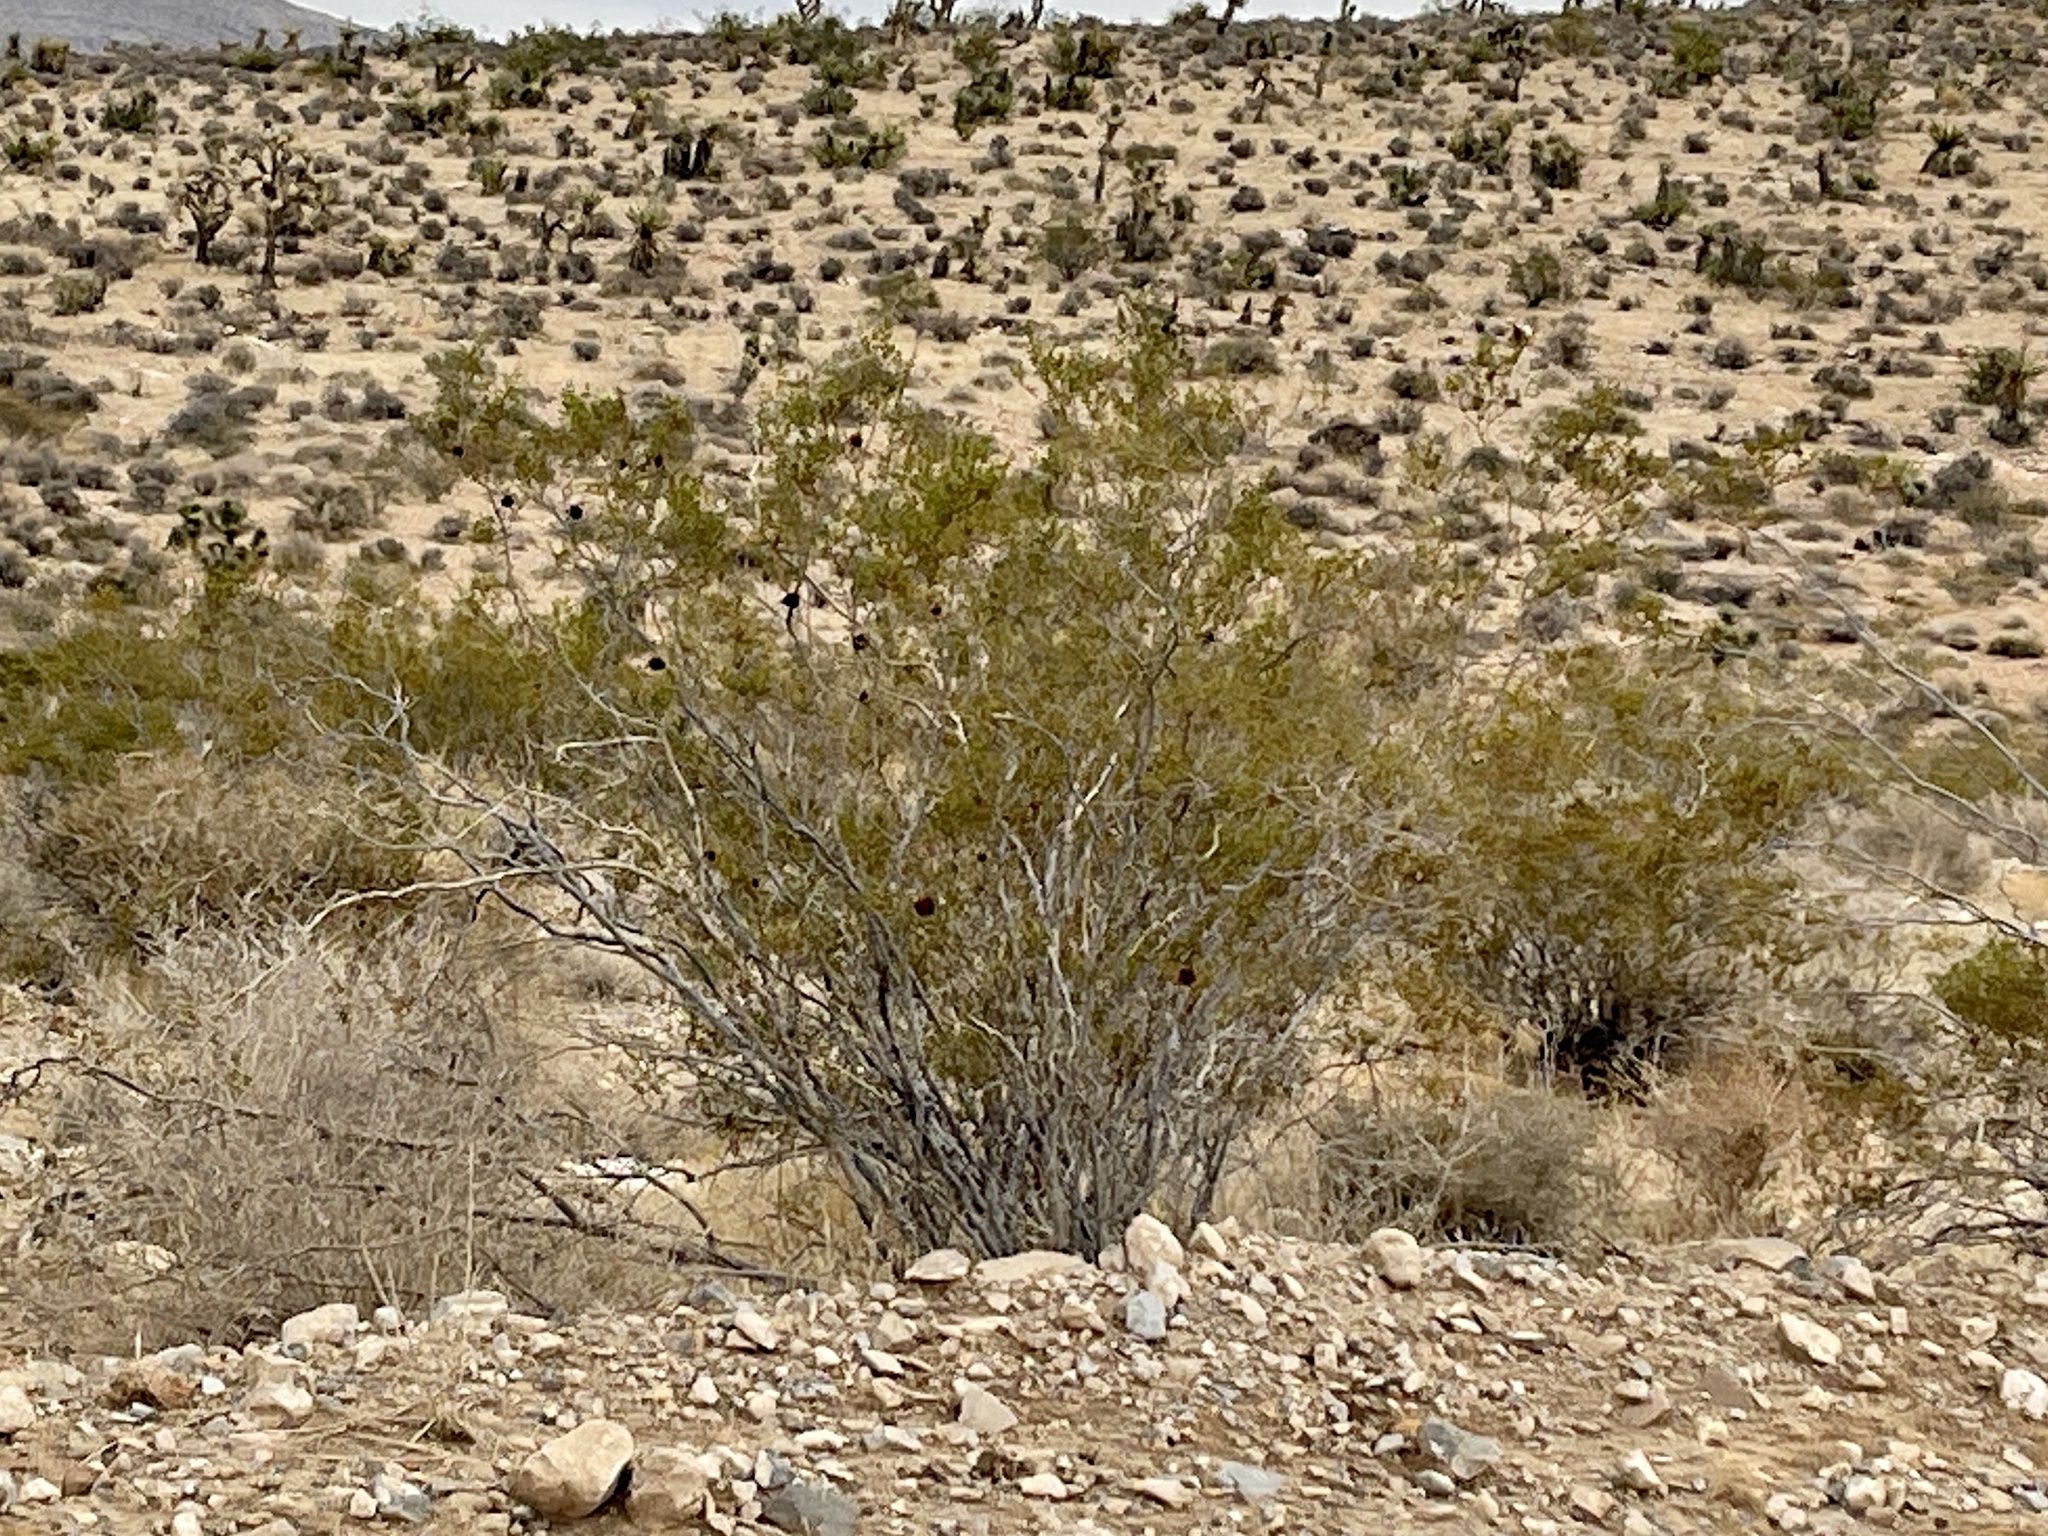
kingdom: Plantae
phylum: Tracheophyta
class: Magnoliopsida
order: Zygophyllales
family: Zygophyllaceae
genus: Larrea
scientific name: Larrea tridentata
